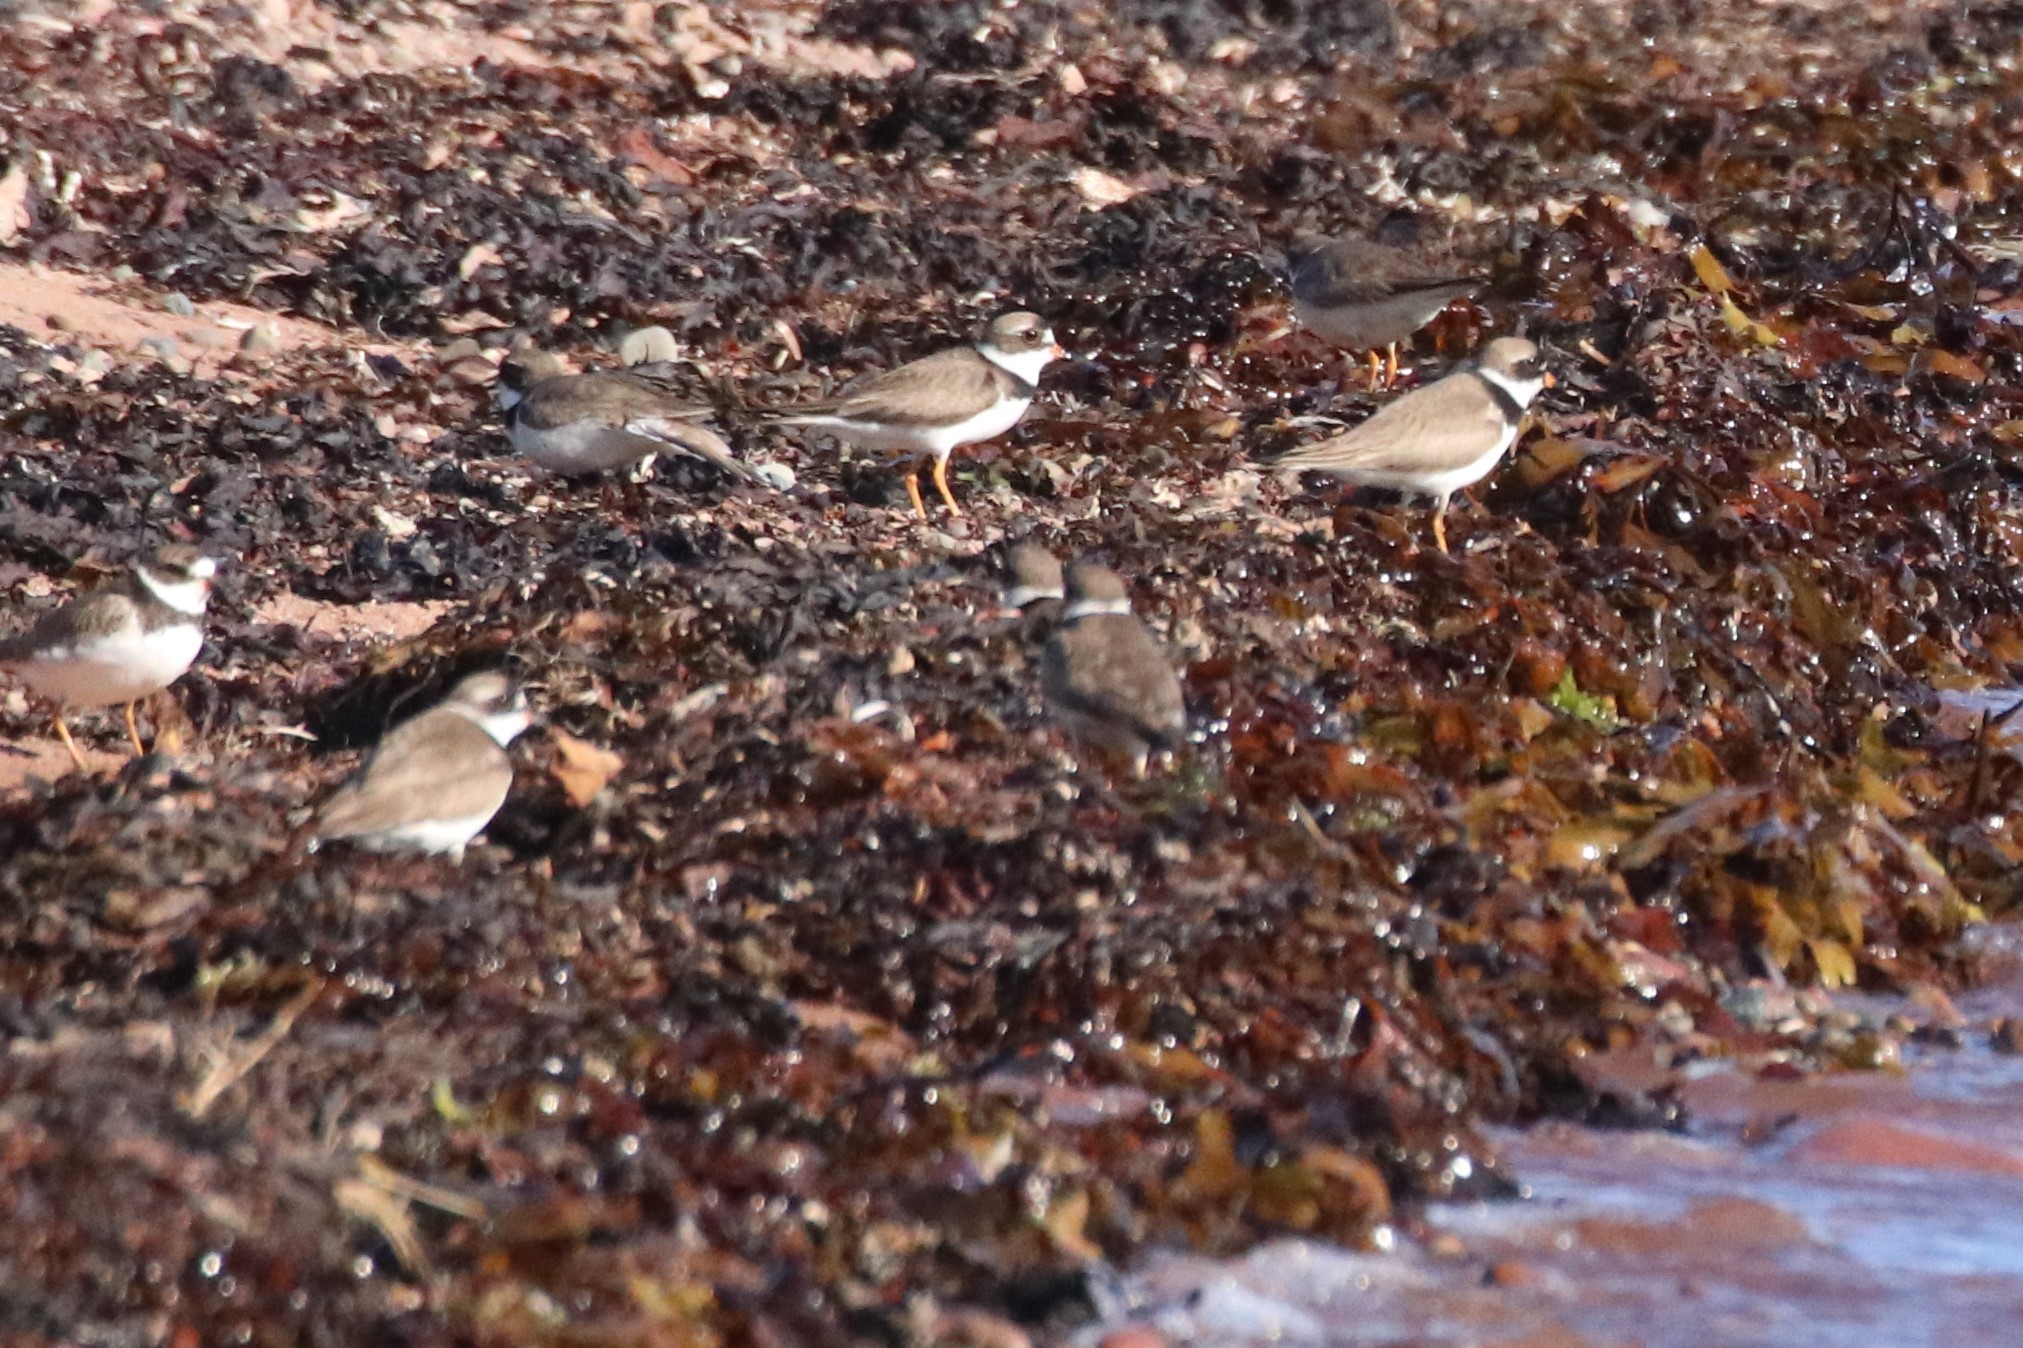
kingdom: Animalia
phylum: Chordata
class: Aves
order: Charadriiformes
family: Charadriidae
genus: Charadrius
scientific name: Charadrius semipalmatus
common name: Semipalmated plover
